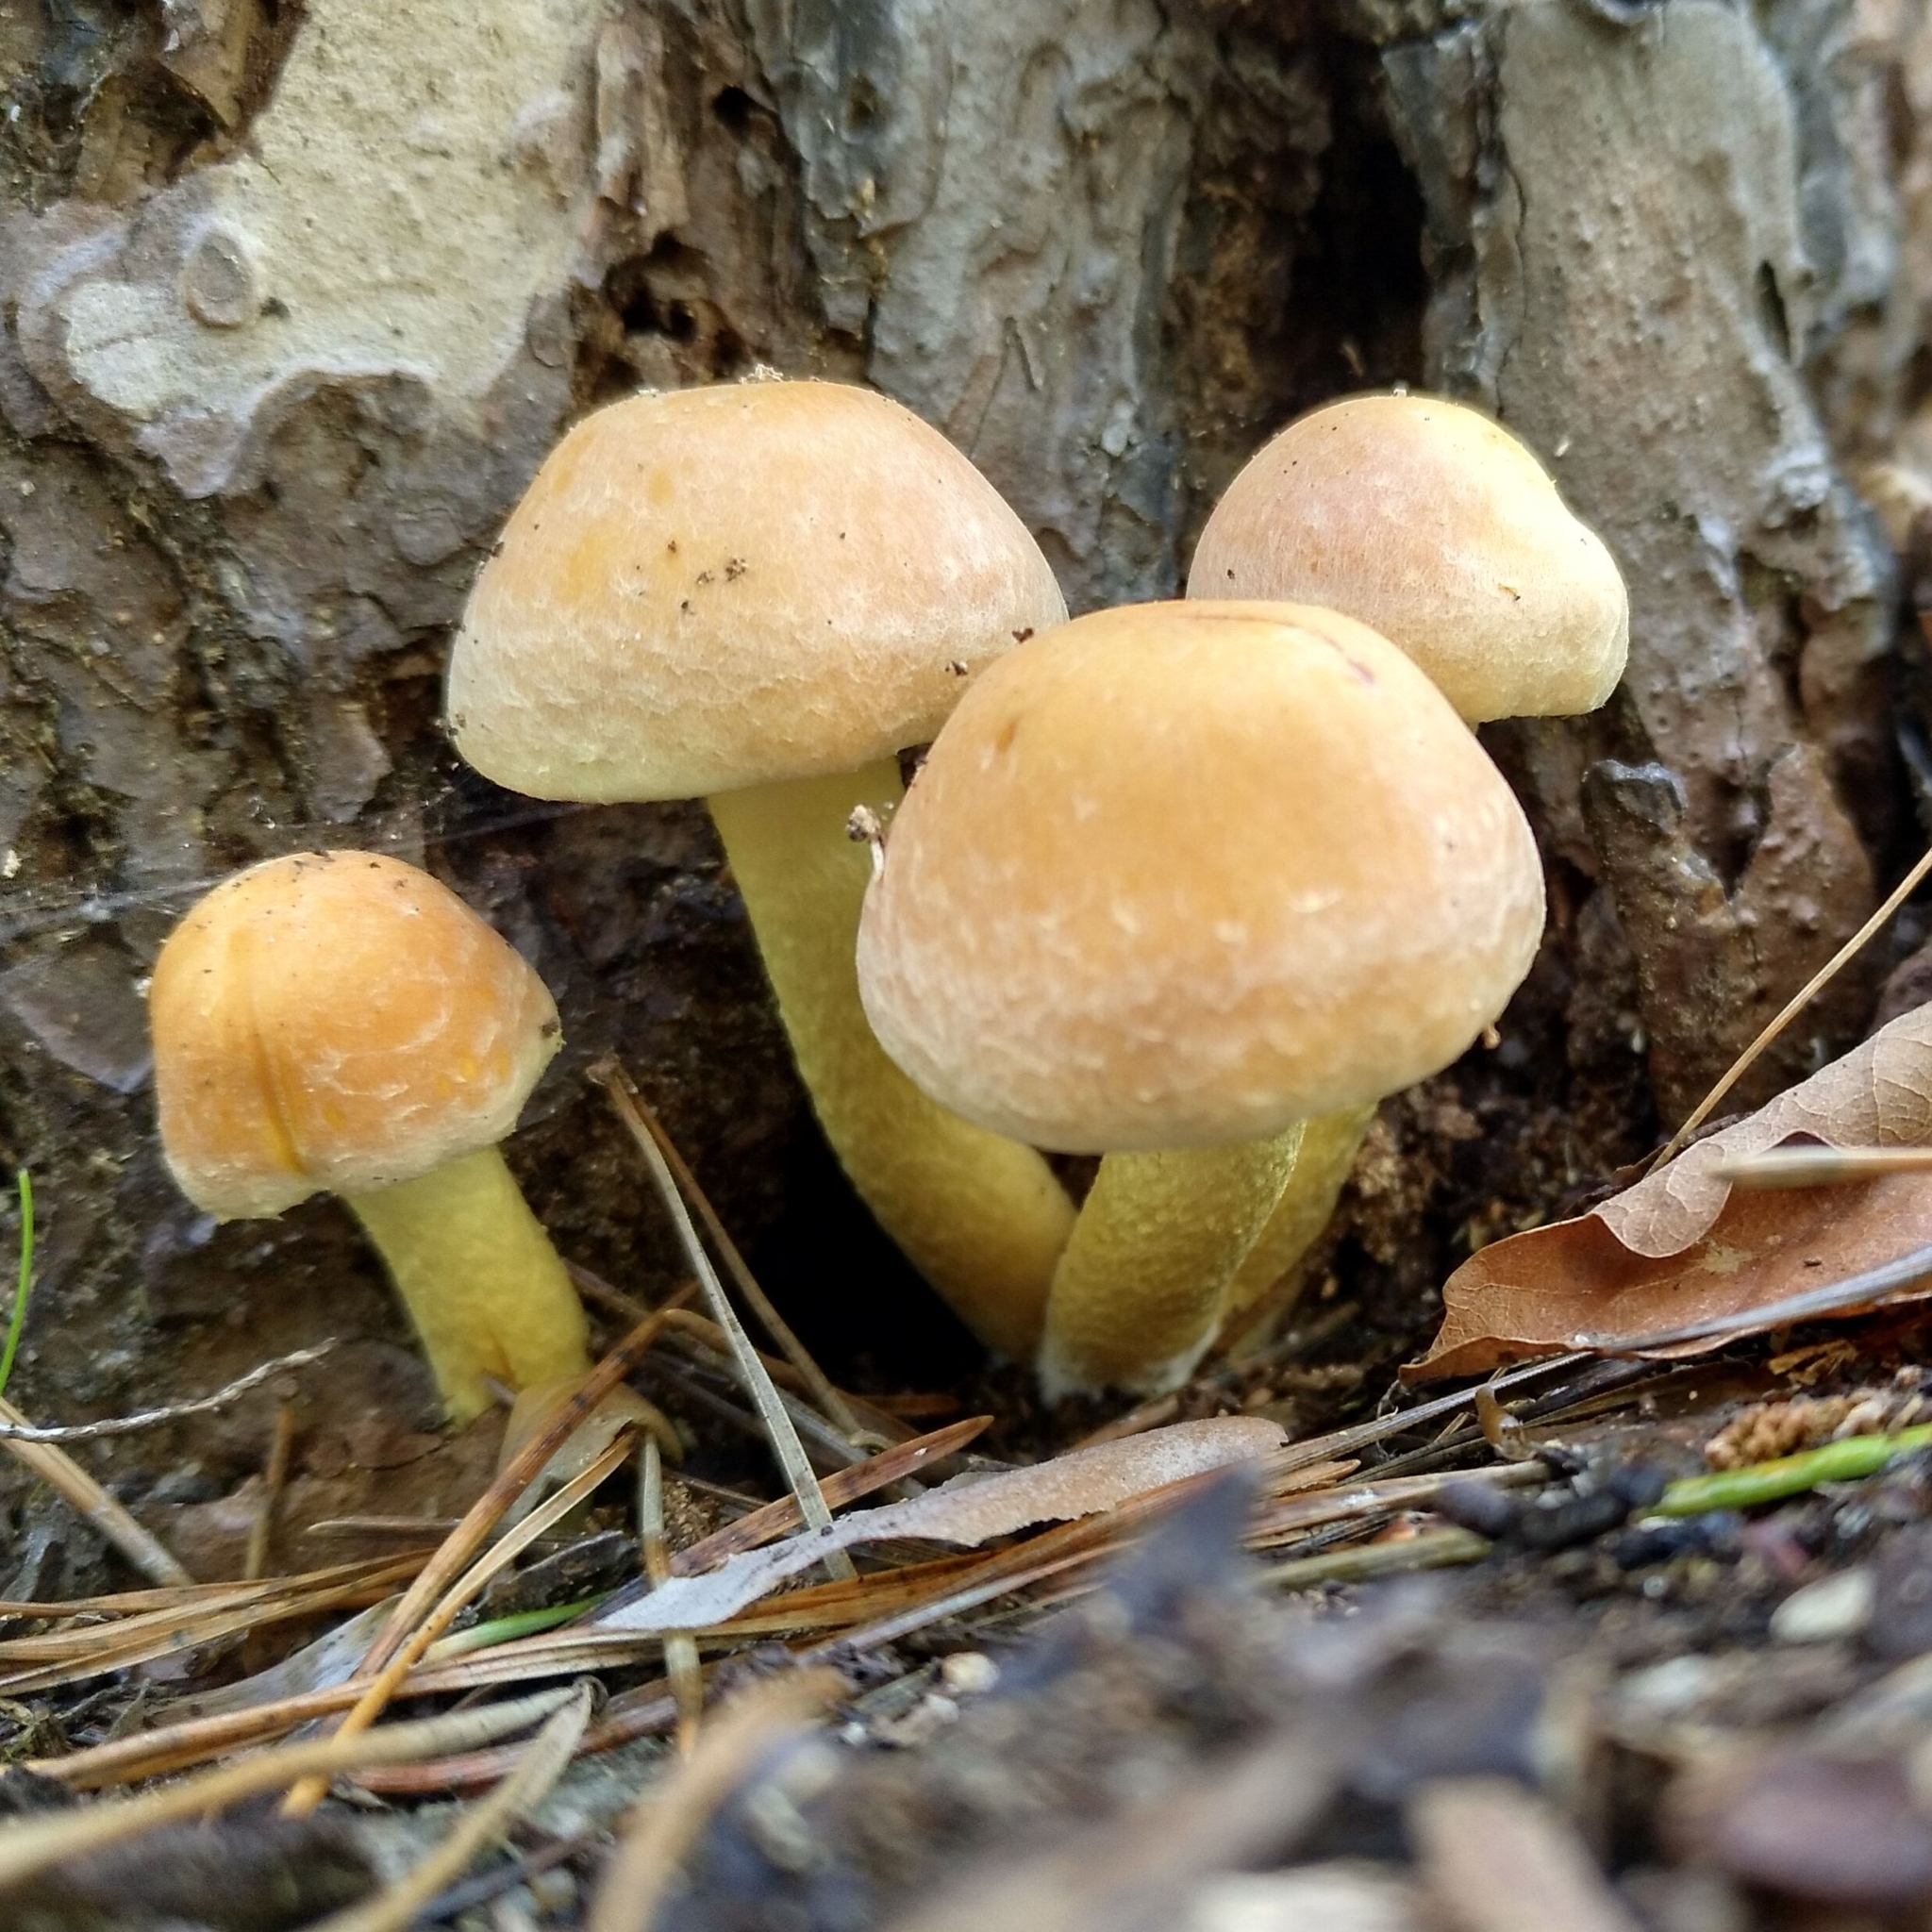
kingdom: Fungi
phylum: Basidiomycota
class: Agaricomycetes
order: Agaricales
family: Strophariaceae
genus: Hypholoma
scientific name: Hypholoma fasciculare
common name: Sulphur tuft
